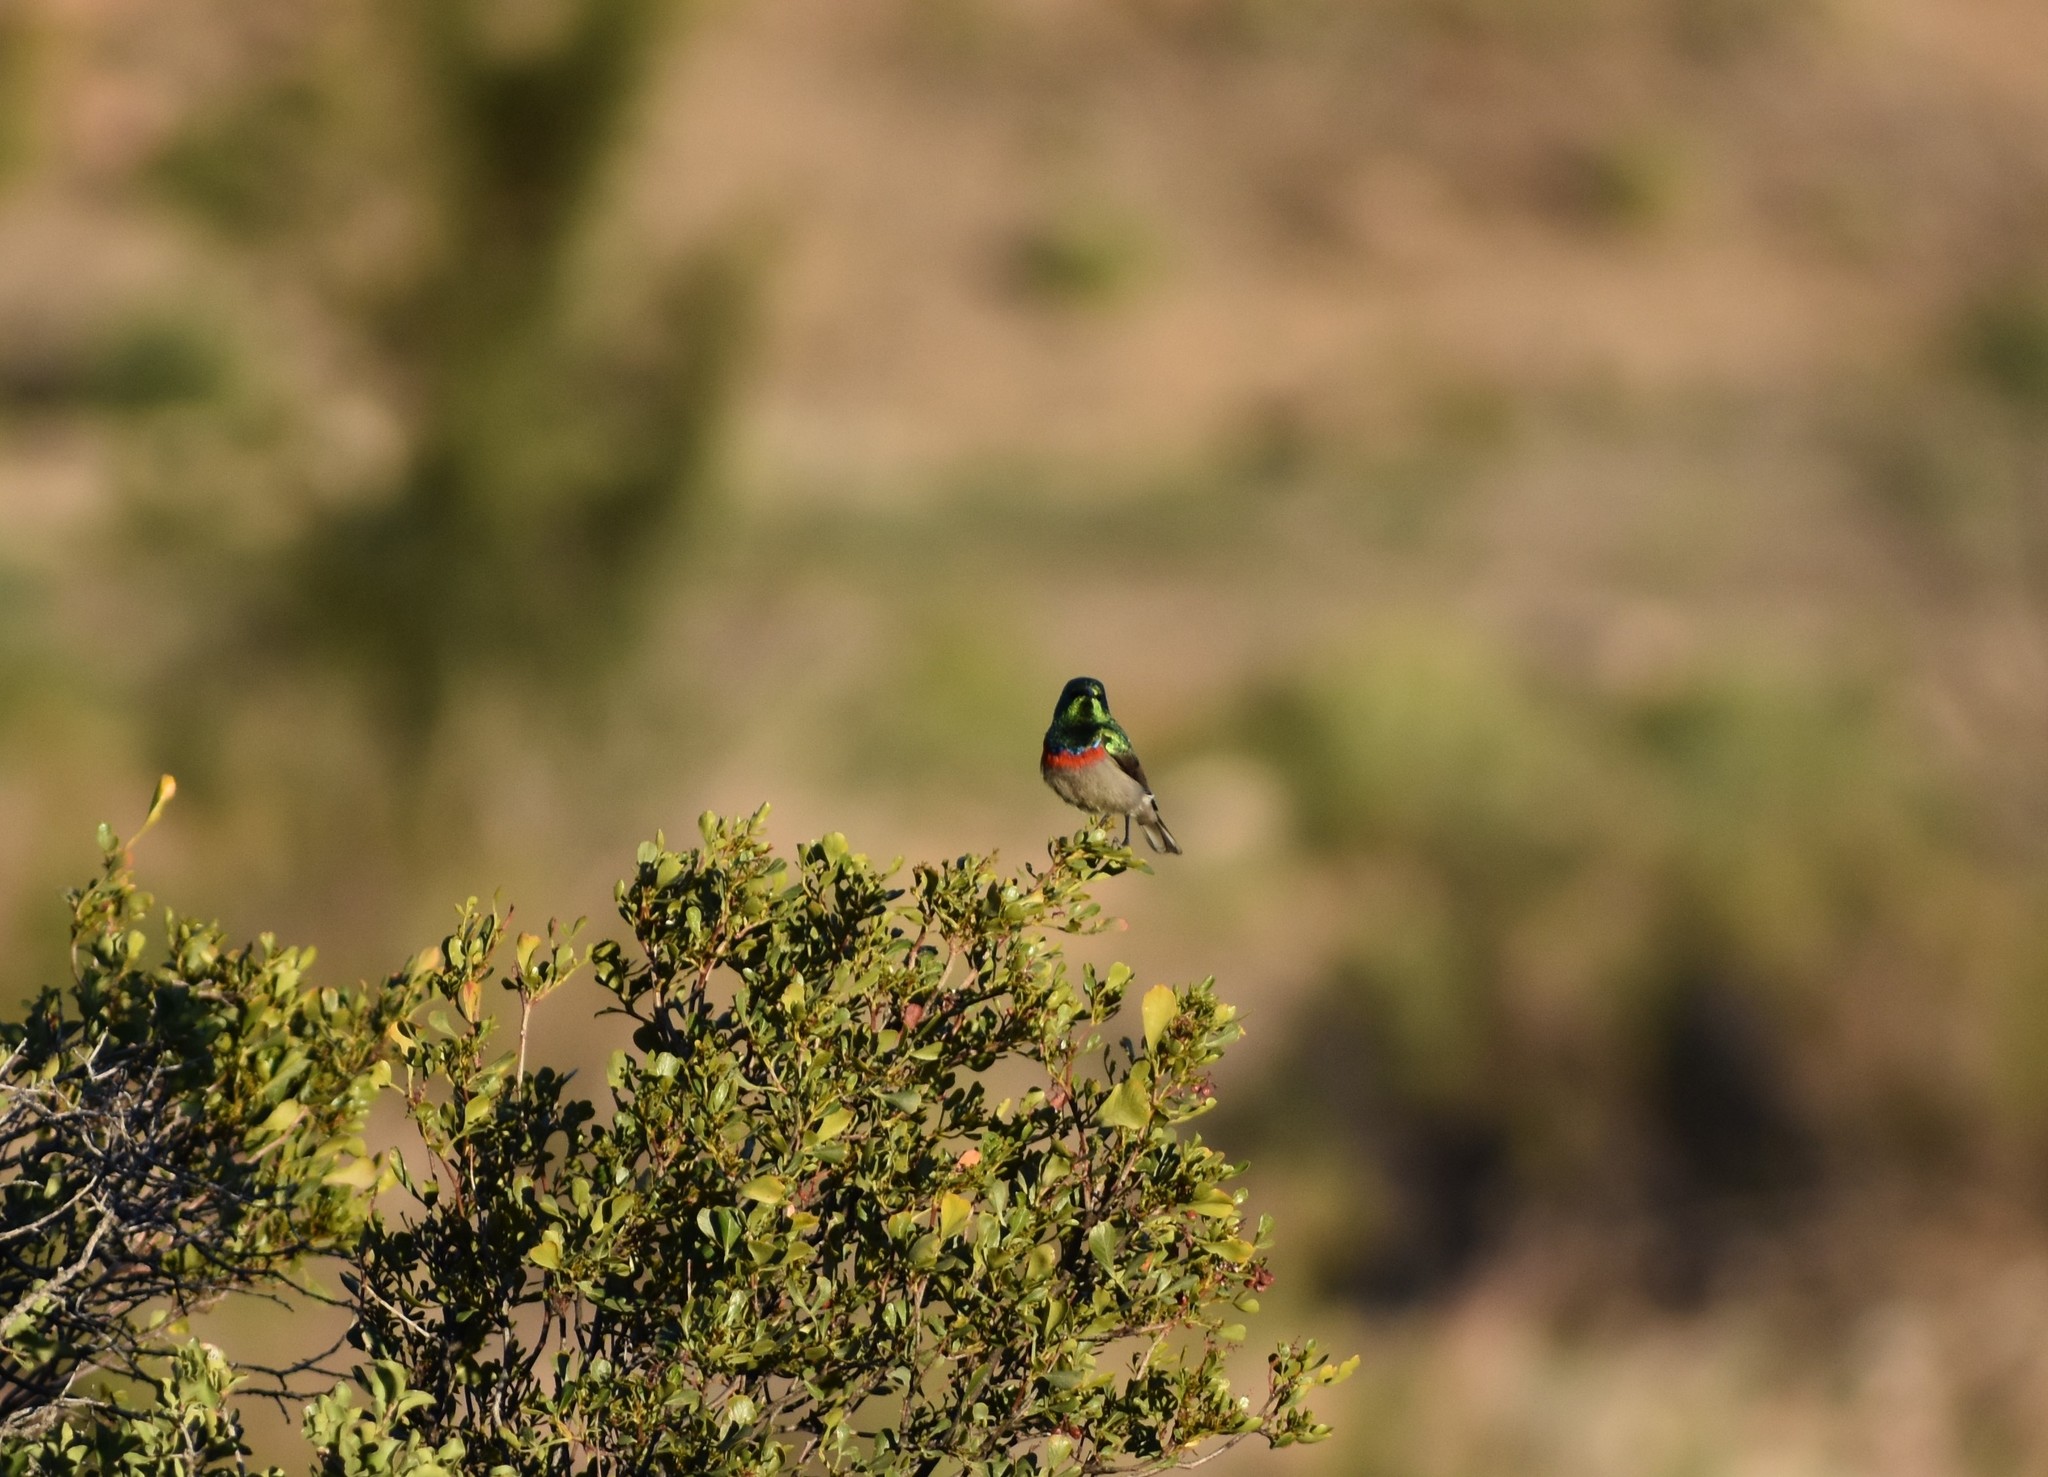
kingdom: Animalia
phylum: Chordata
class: Aves
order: Passeriformes
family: Nectariniidae
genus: Cinnyris
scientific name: Cinnyris chalybeus
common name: Southern double-collared sunbird
